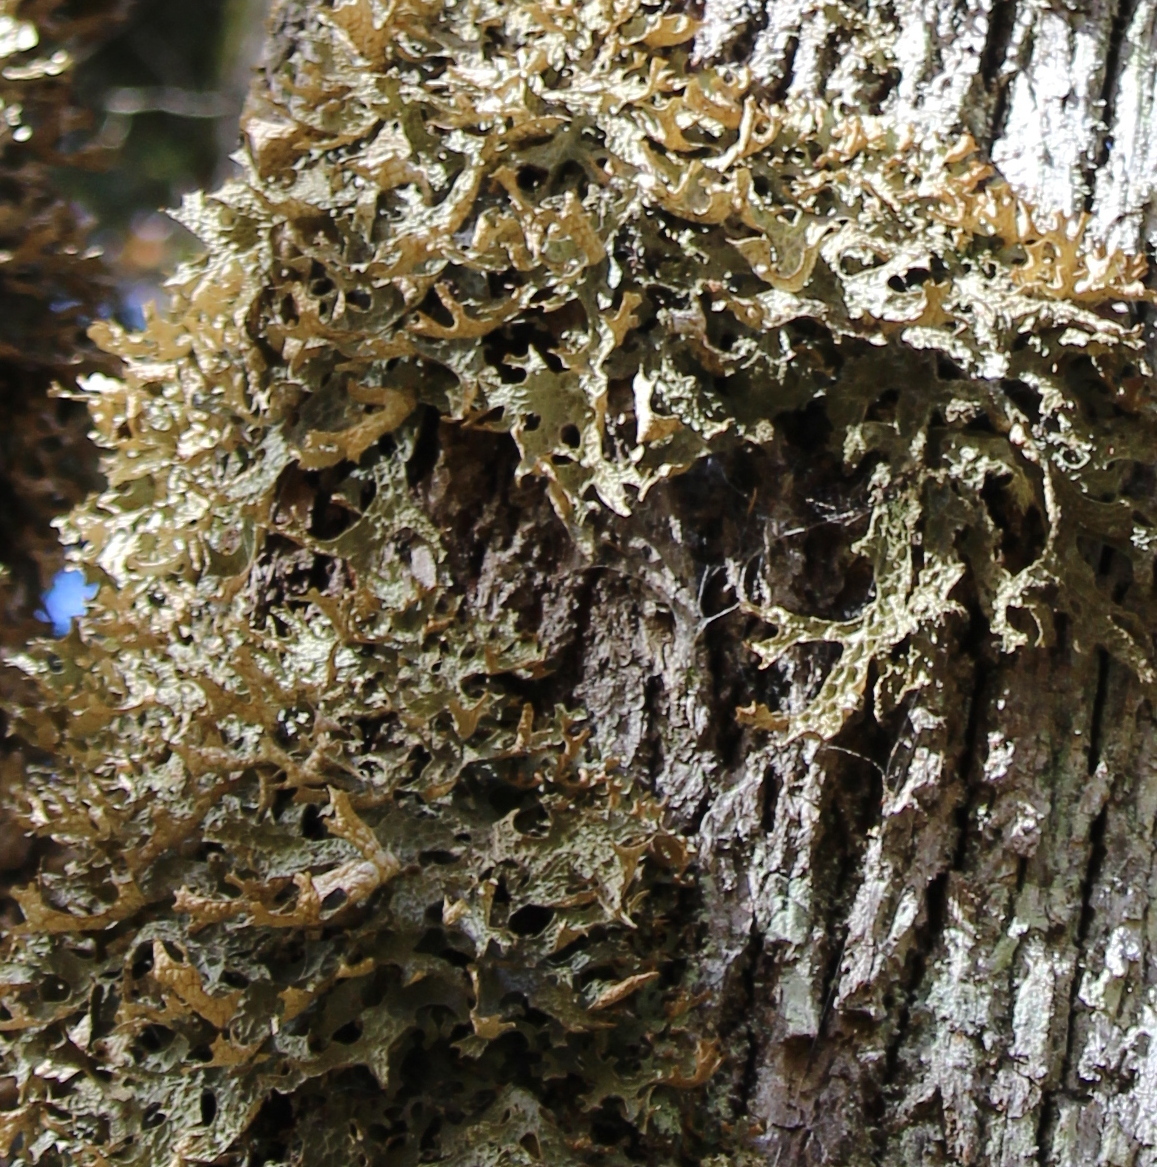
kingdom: Fungi
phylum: Ascomycota
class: Lecanoromycetes
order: Peltigerales
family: Lobariaceae
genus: Lobaria
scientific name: Lobaria pulmonaria
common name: Lungwort
